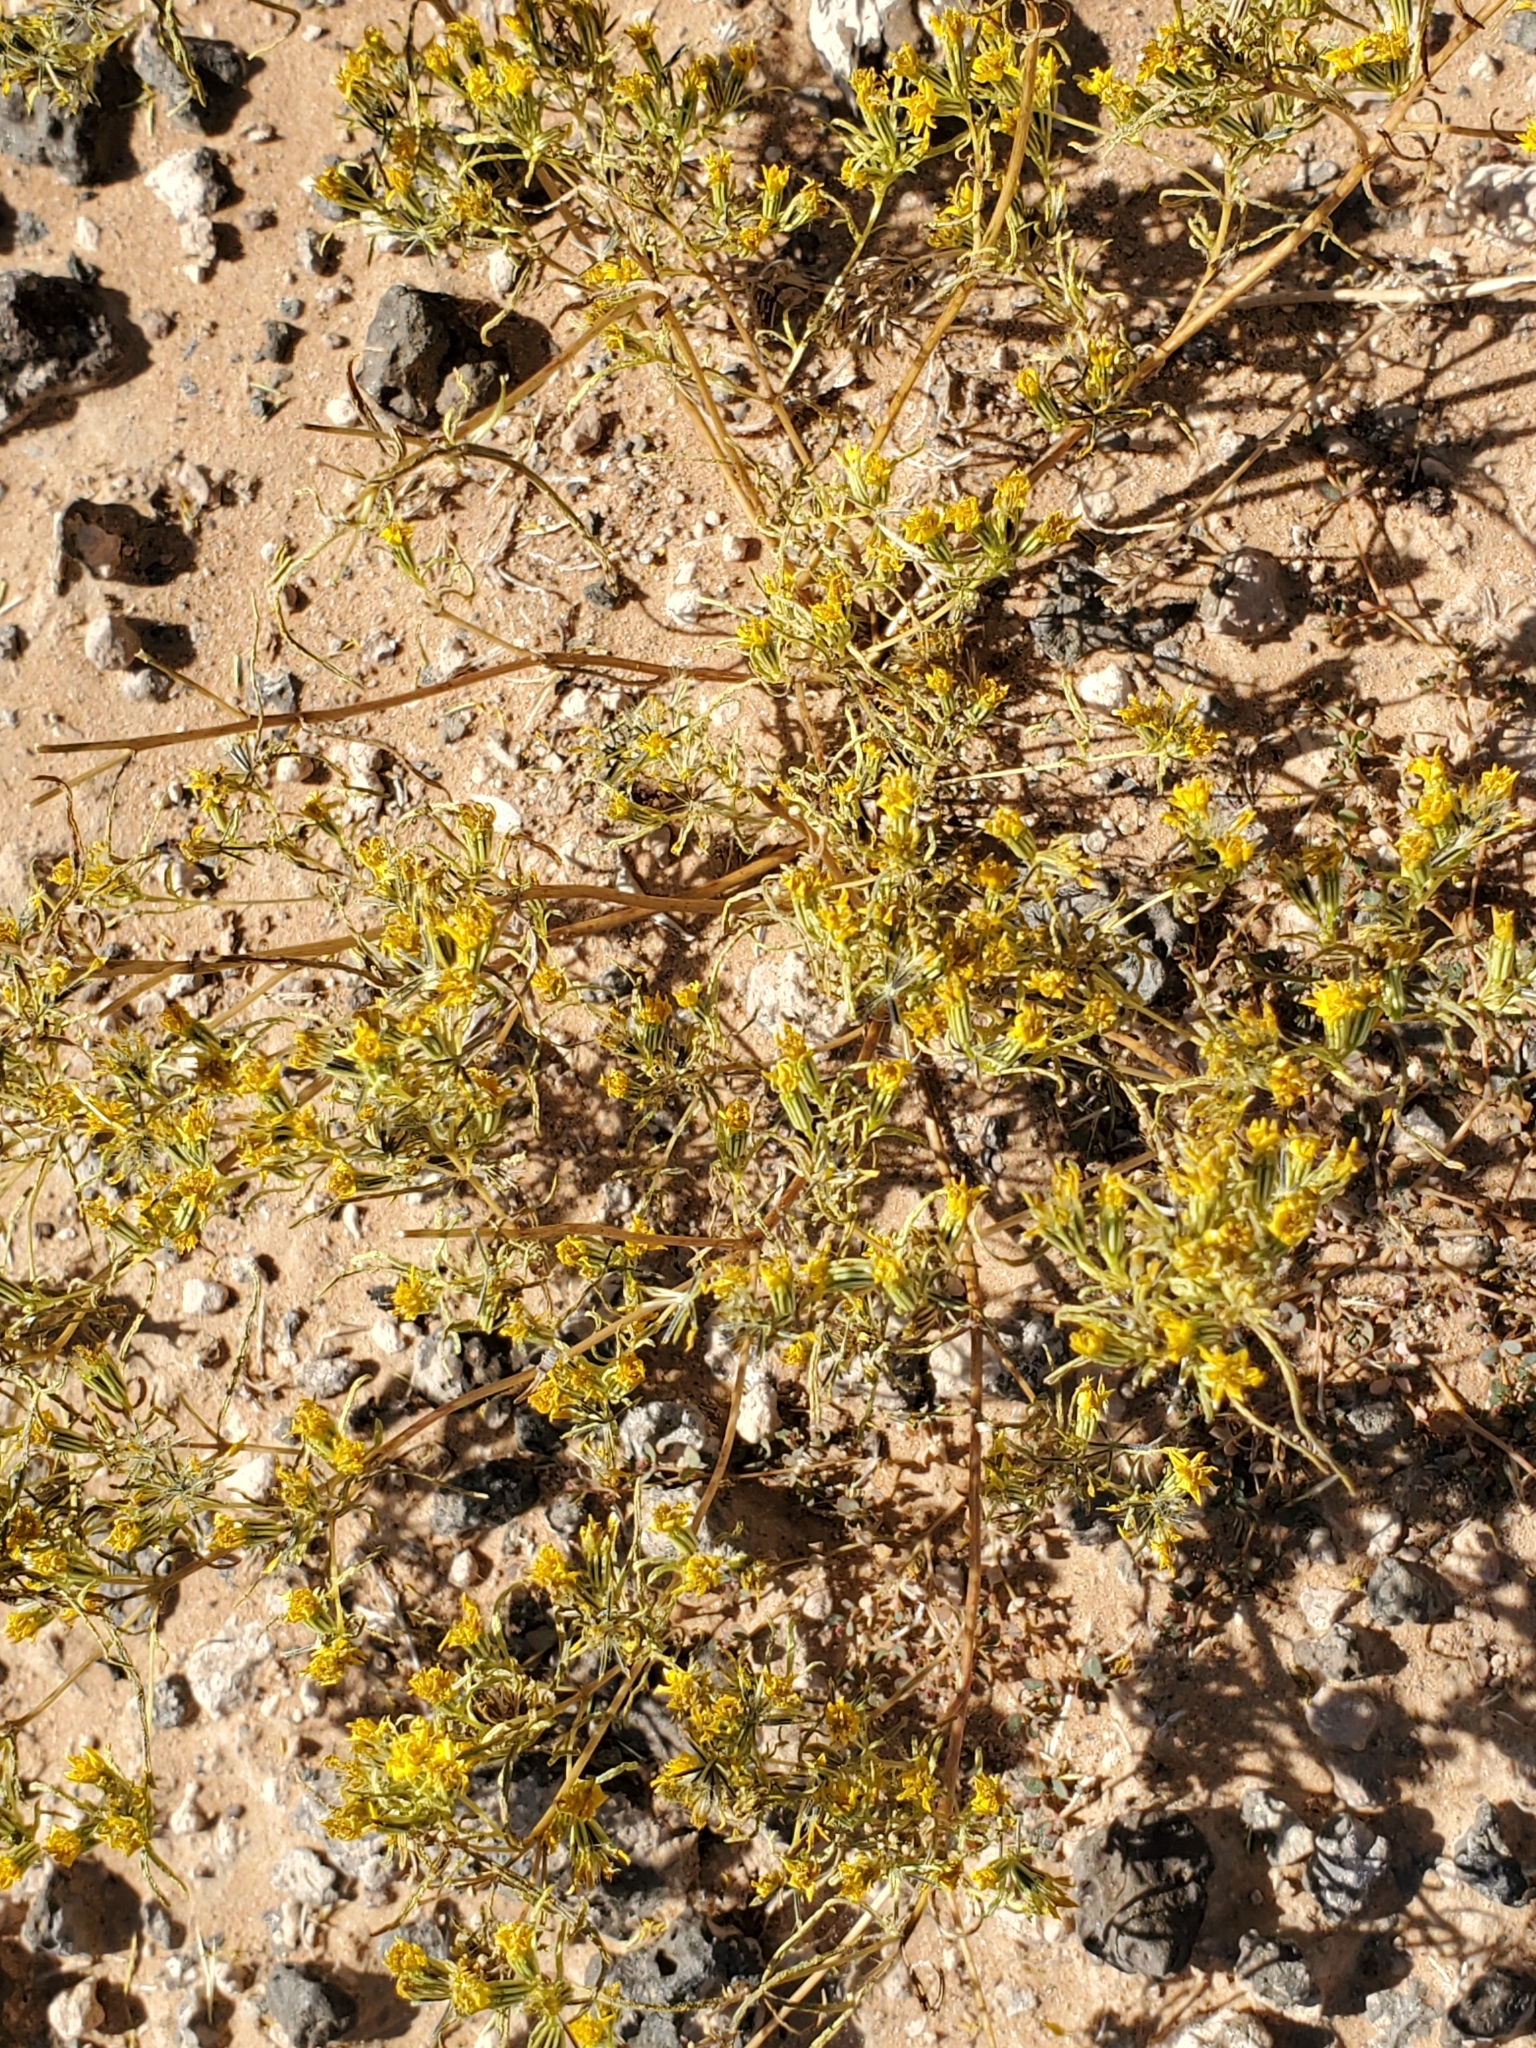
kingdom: Plantae
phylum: Tracheophyta
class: Magnoliopsida
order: Asterales
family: Asteraceae
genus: Pectis
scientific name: Pectis papposa
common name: Many-bristle chinchweed
